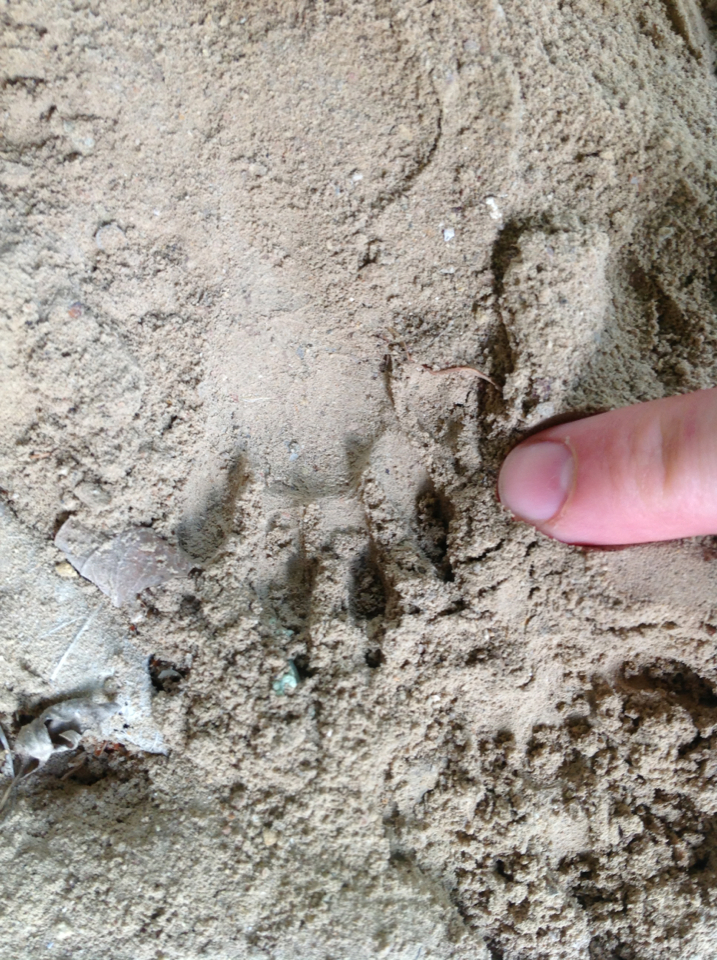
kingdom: Animalia
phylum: Chordata
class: Mammalia
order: Carnivora
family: Procyonidae
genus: Procyon
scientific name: Procyon lotor
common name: Raccoon
